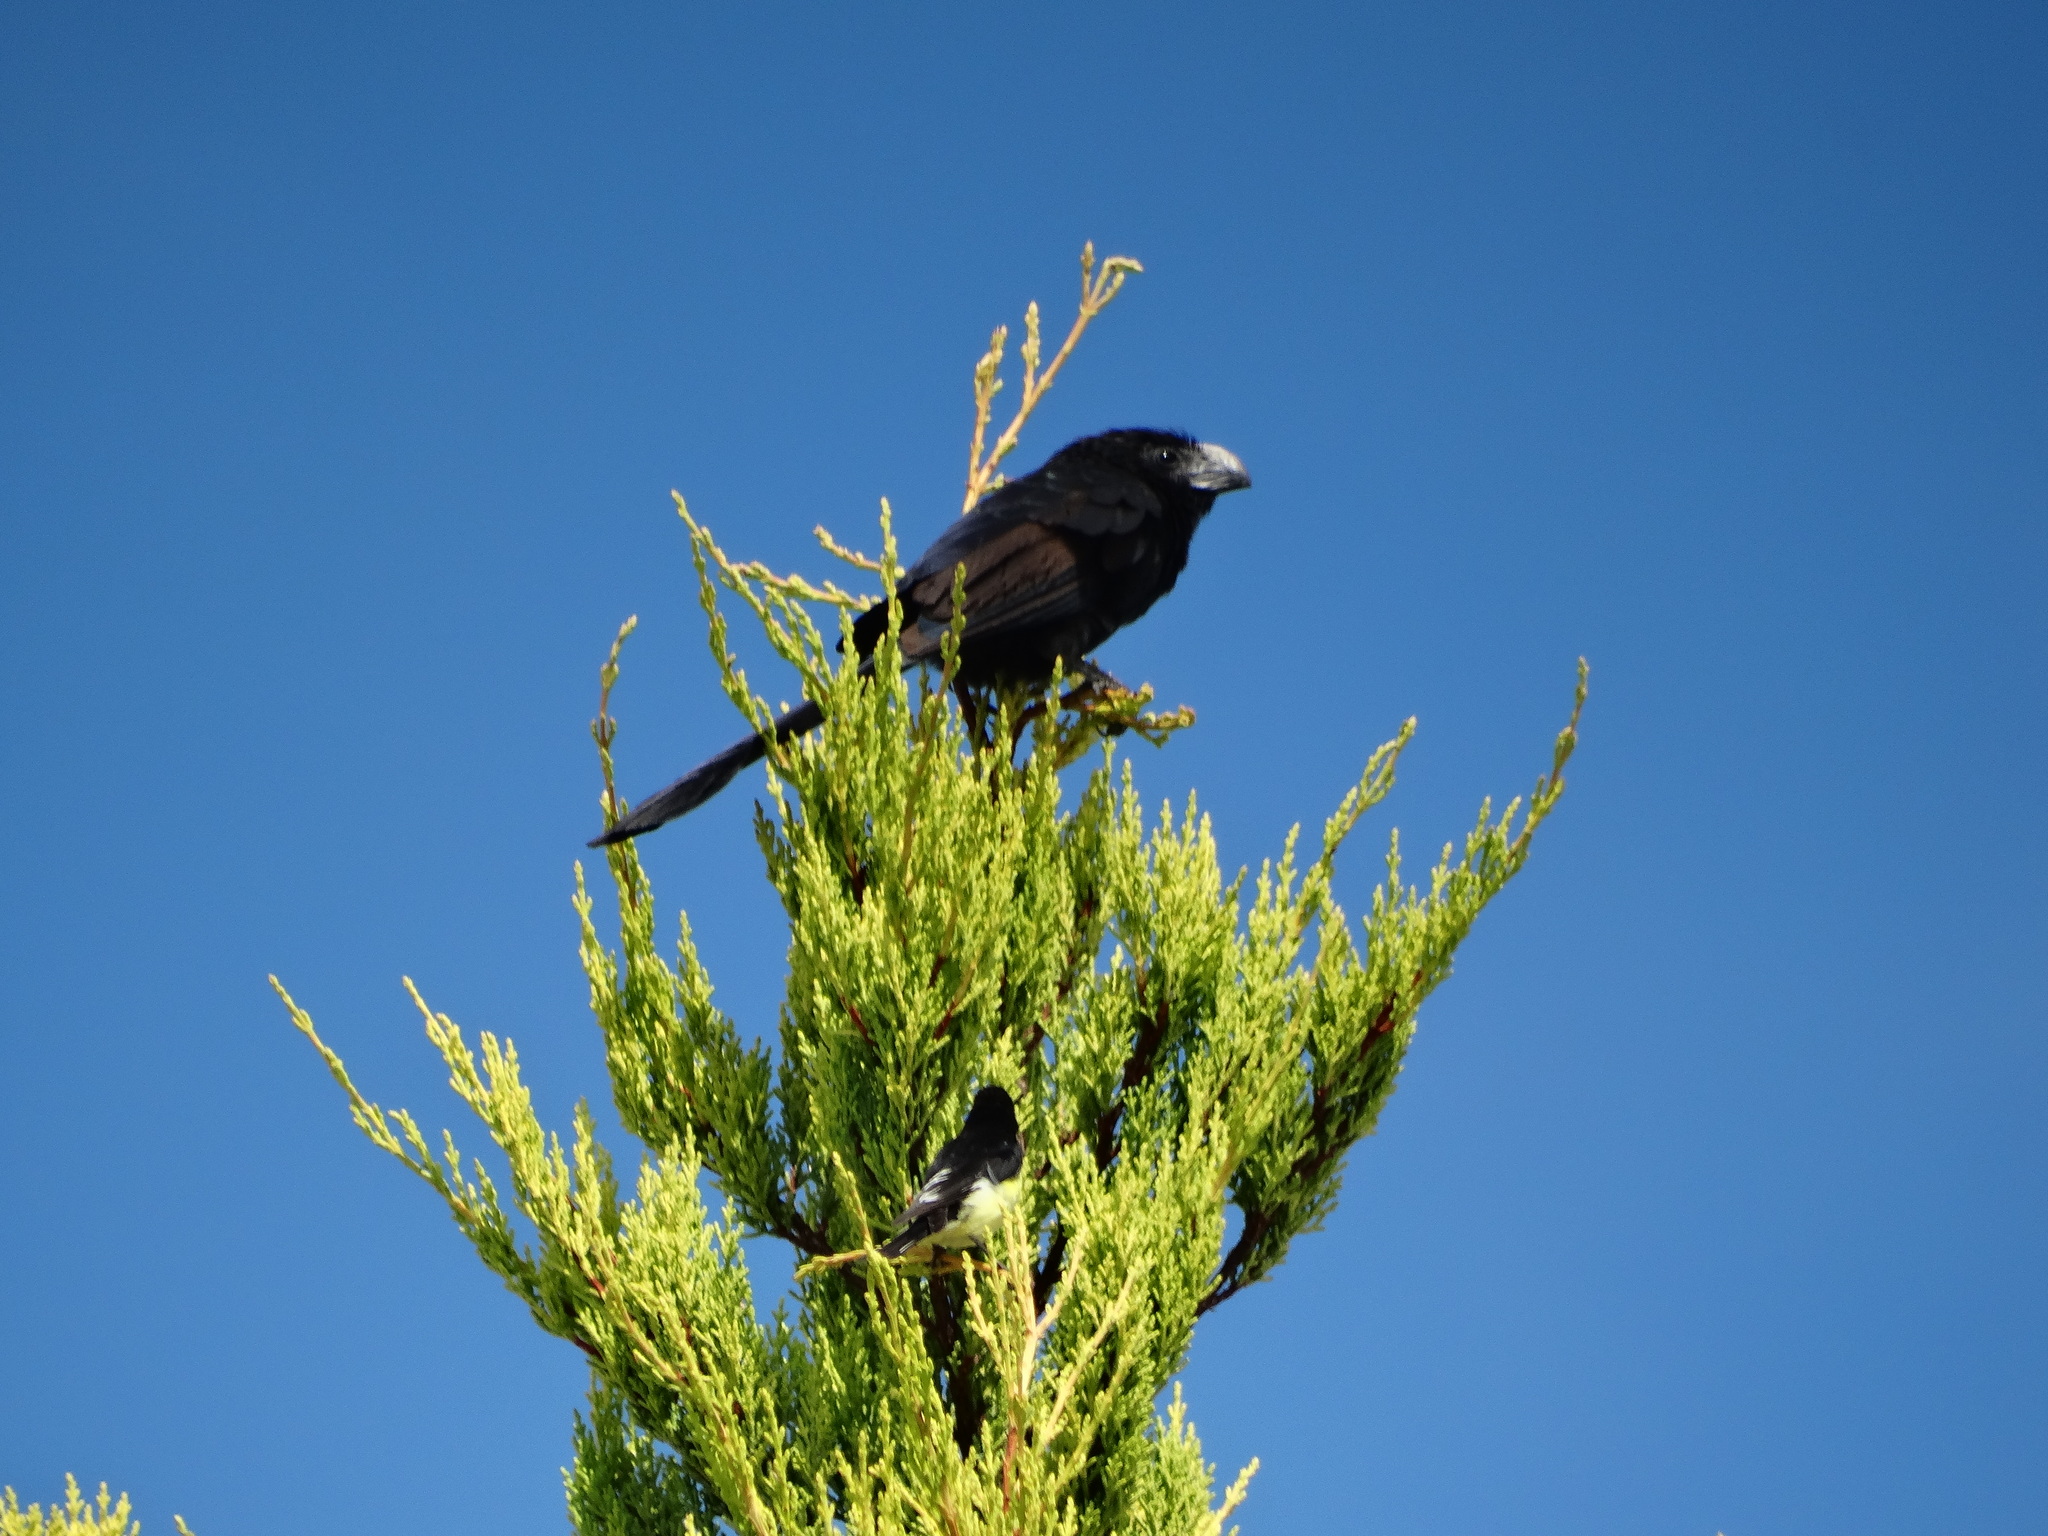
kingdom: Animalia
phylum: Chordata
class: Aves
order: Cuculiformes
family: Cuculidae
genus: Crotophaga
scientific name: Crotophaga sulcirostris
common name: Groove-billed ani
